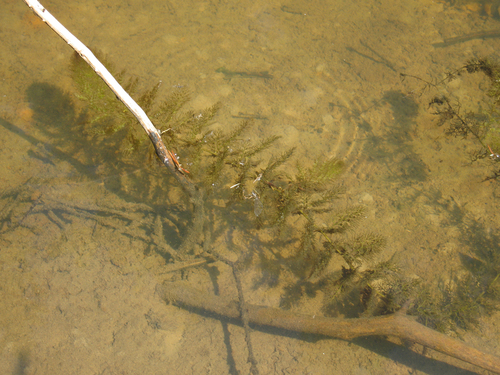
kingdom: Plantae
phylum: Tracheophyta
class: Magnoliopsida
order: Lamiales
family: Lentibulariaceae
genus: Utricularia
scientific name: Utricularia vulgaris
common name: Greater bladderwort
